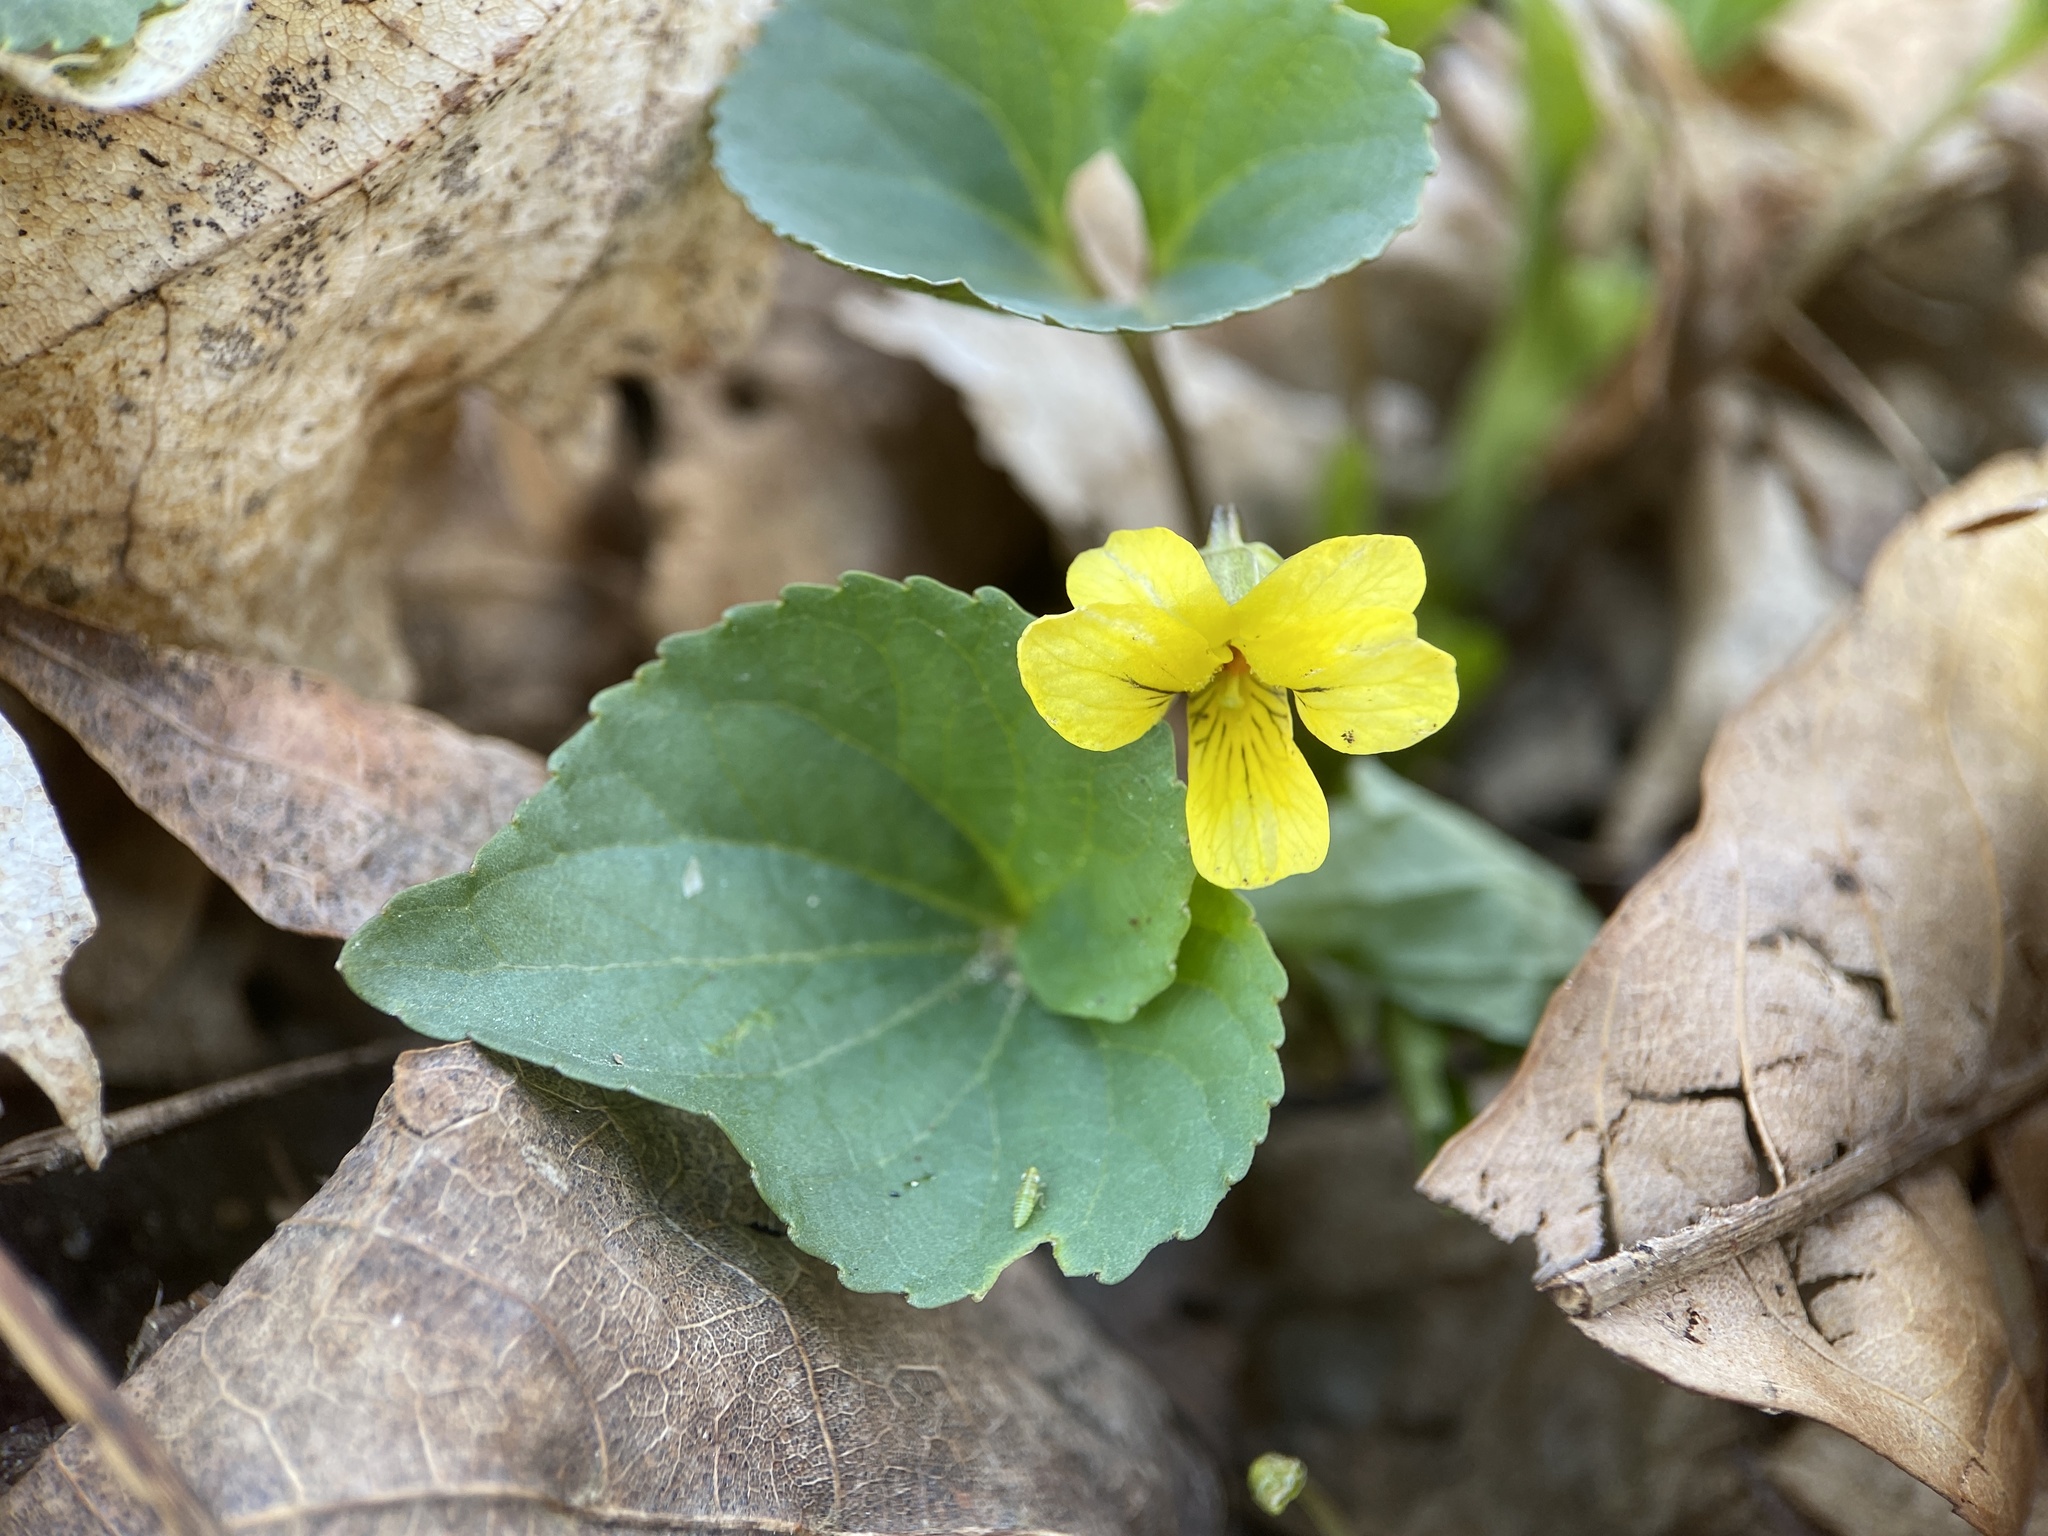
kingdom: Plantae
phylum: Tracheophyta
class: Magnoliopsida
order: Malpighiales
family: Violaceae
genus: Viola
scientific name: Viola eriocarpa
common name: Smooth yellow violet
